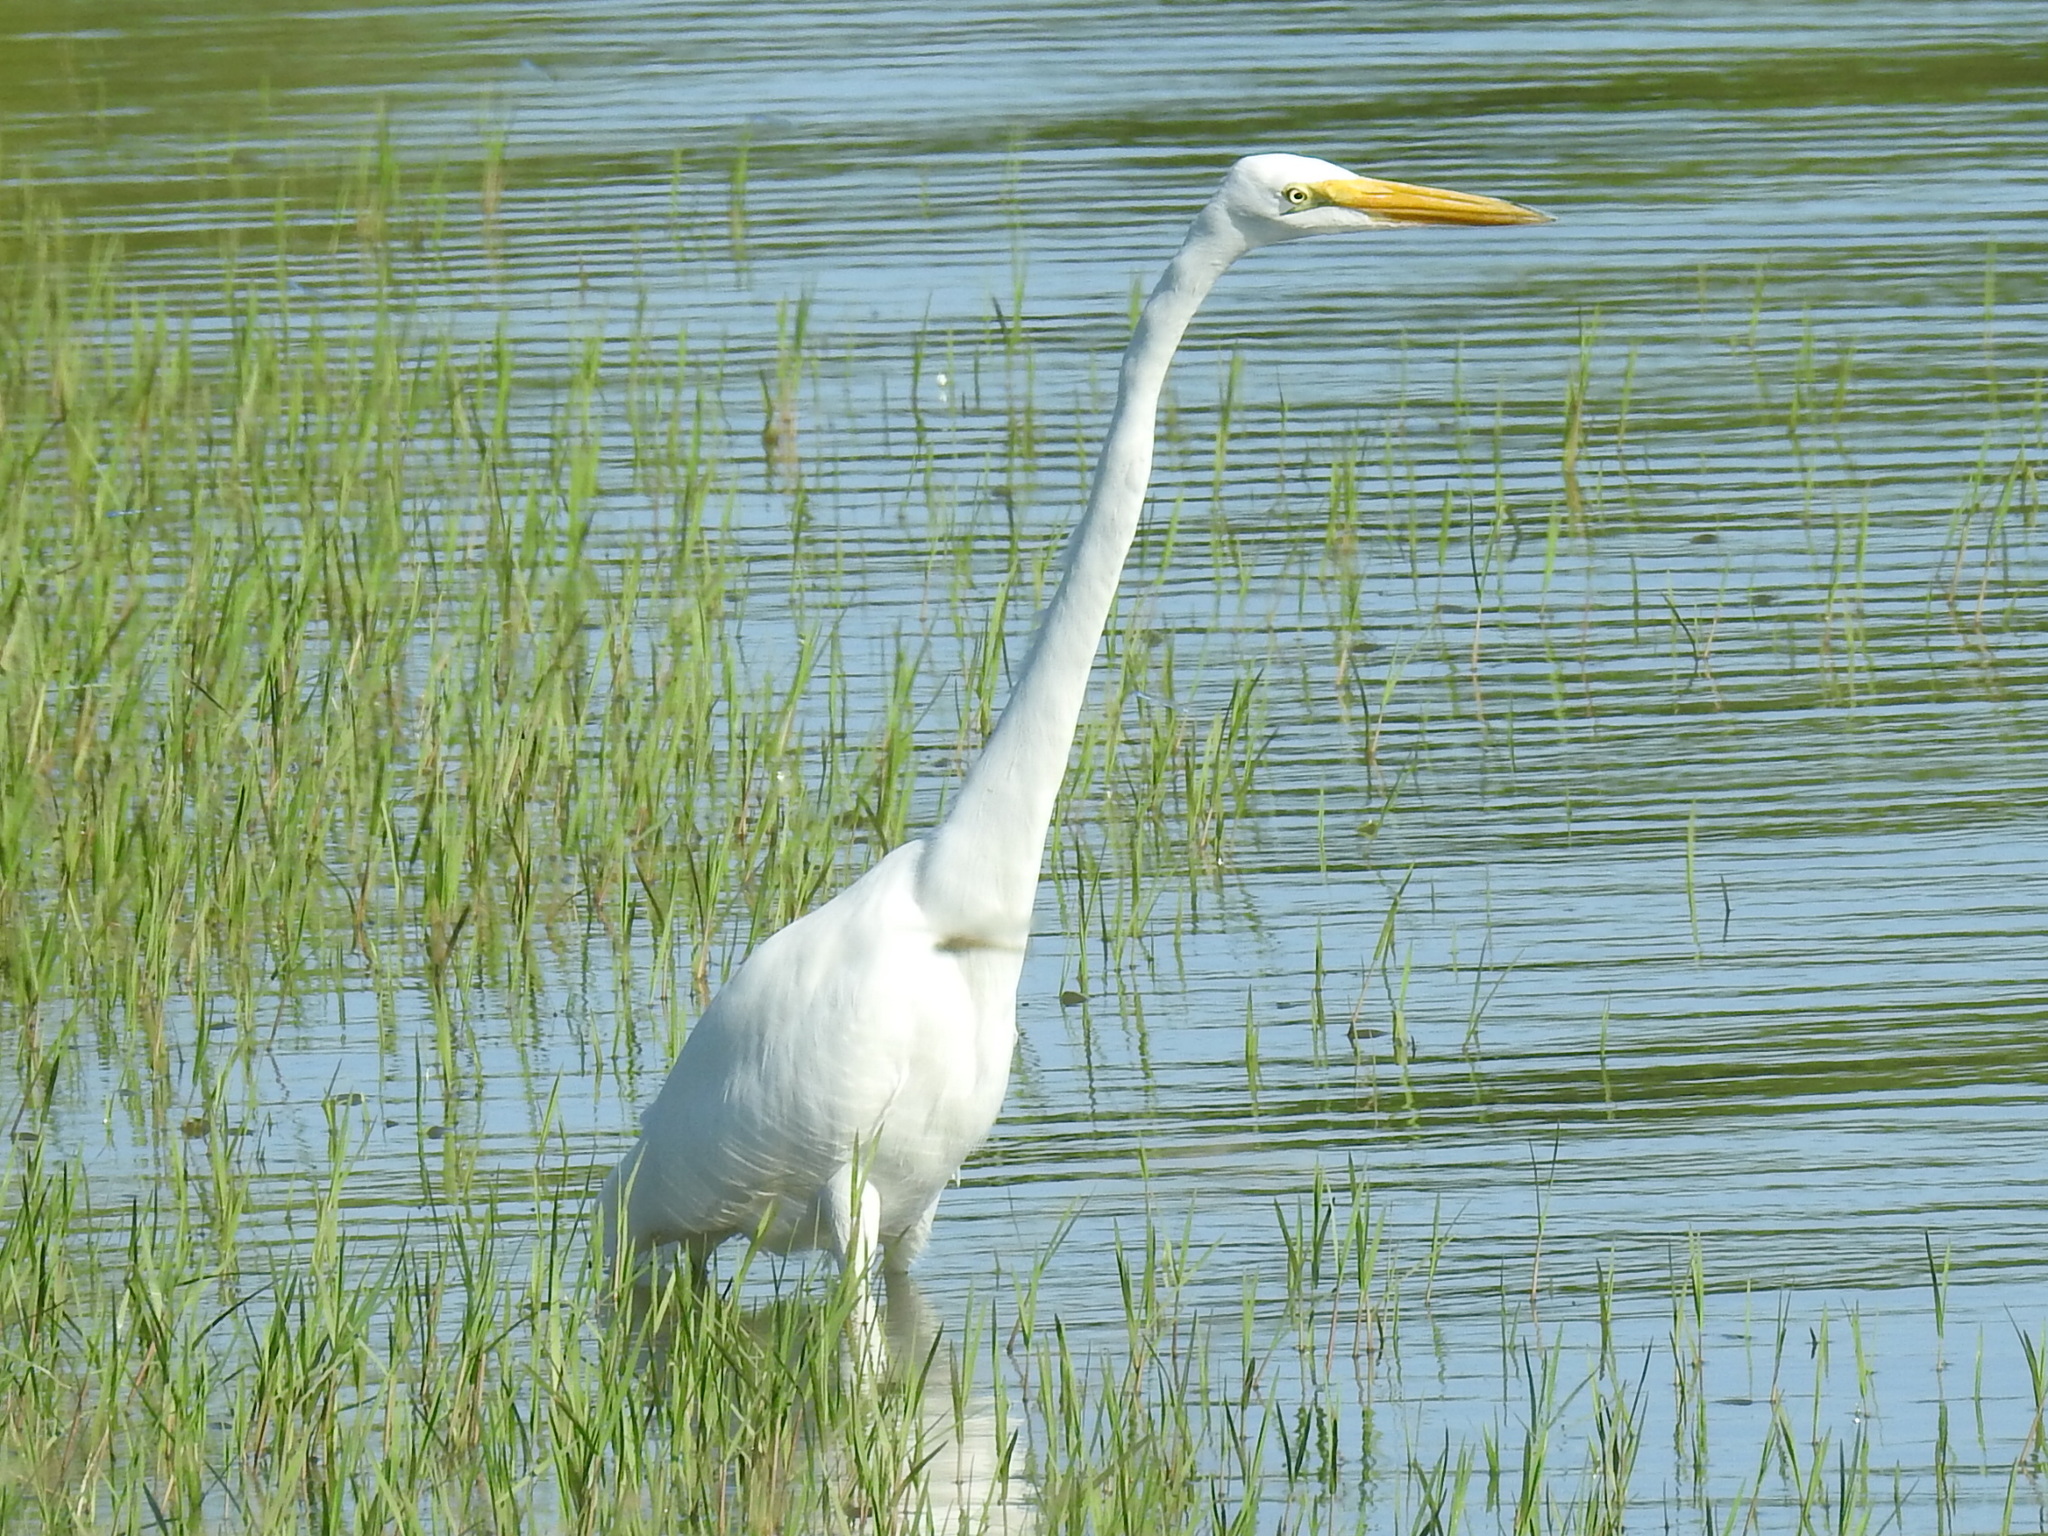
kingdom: Animalia
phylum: Chordata
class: Aves
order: Pelecaniformes
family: Ardeidae
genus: Ardea
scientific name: Ardea alba
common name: Great egret
